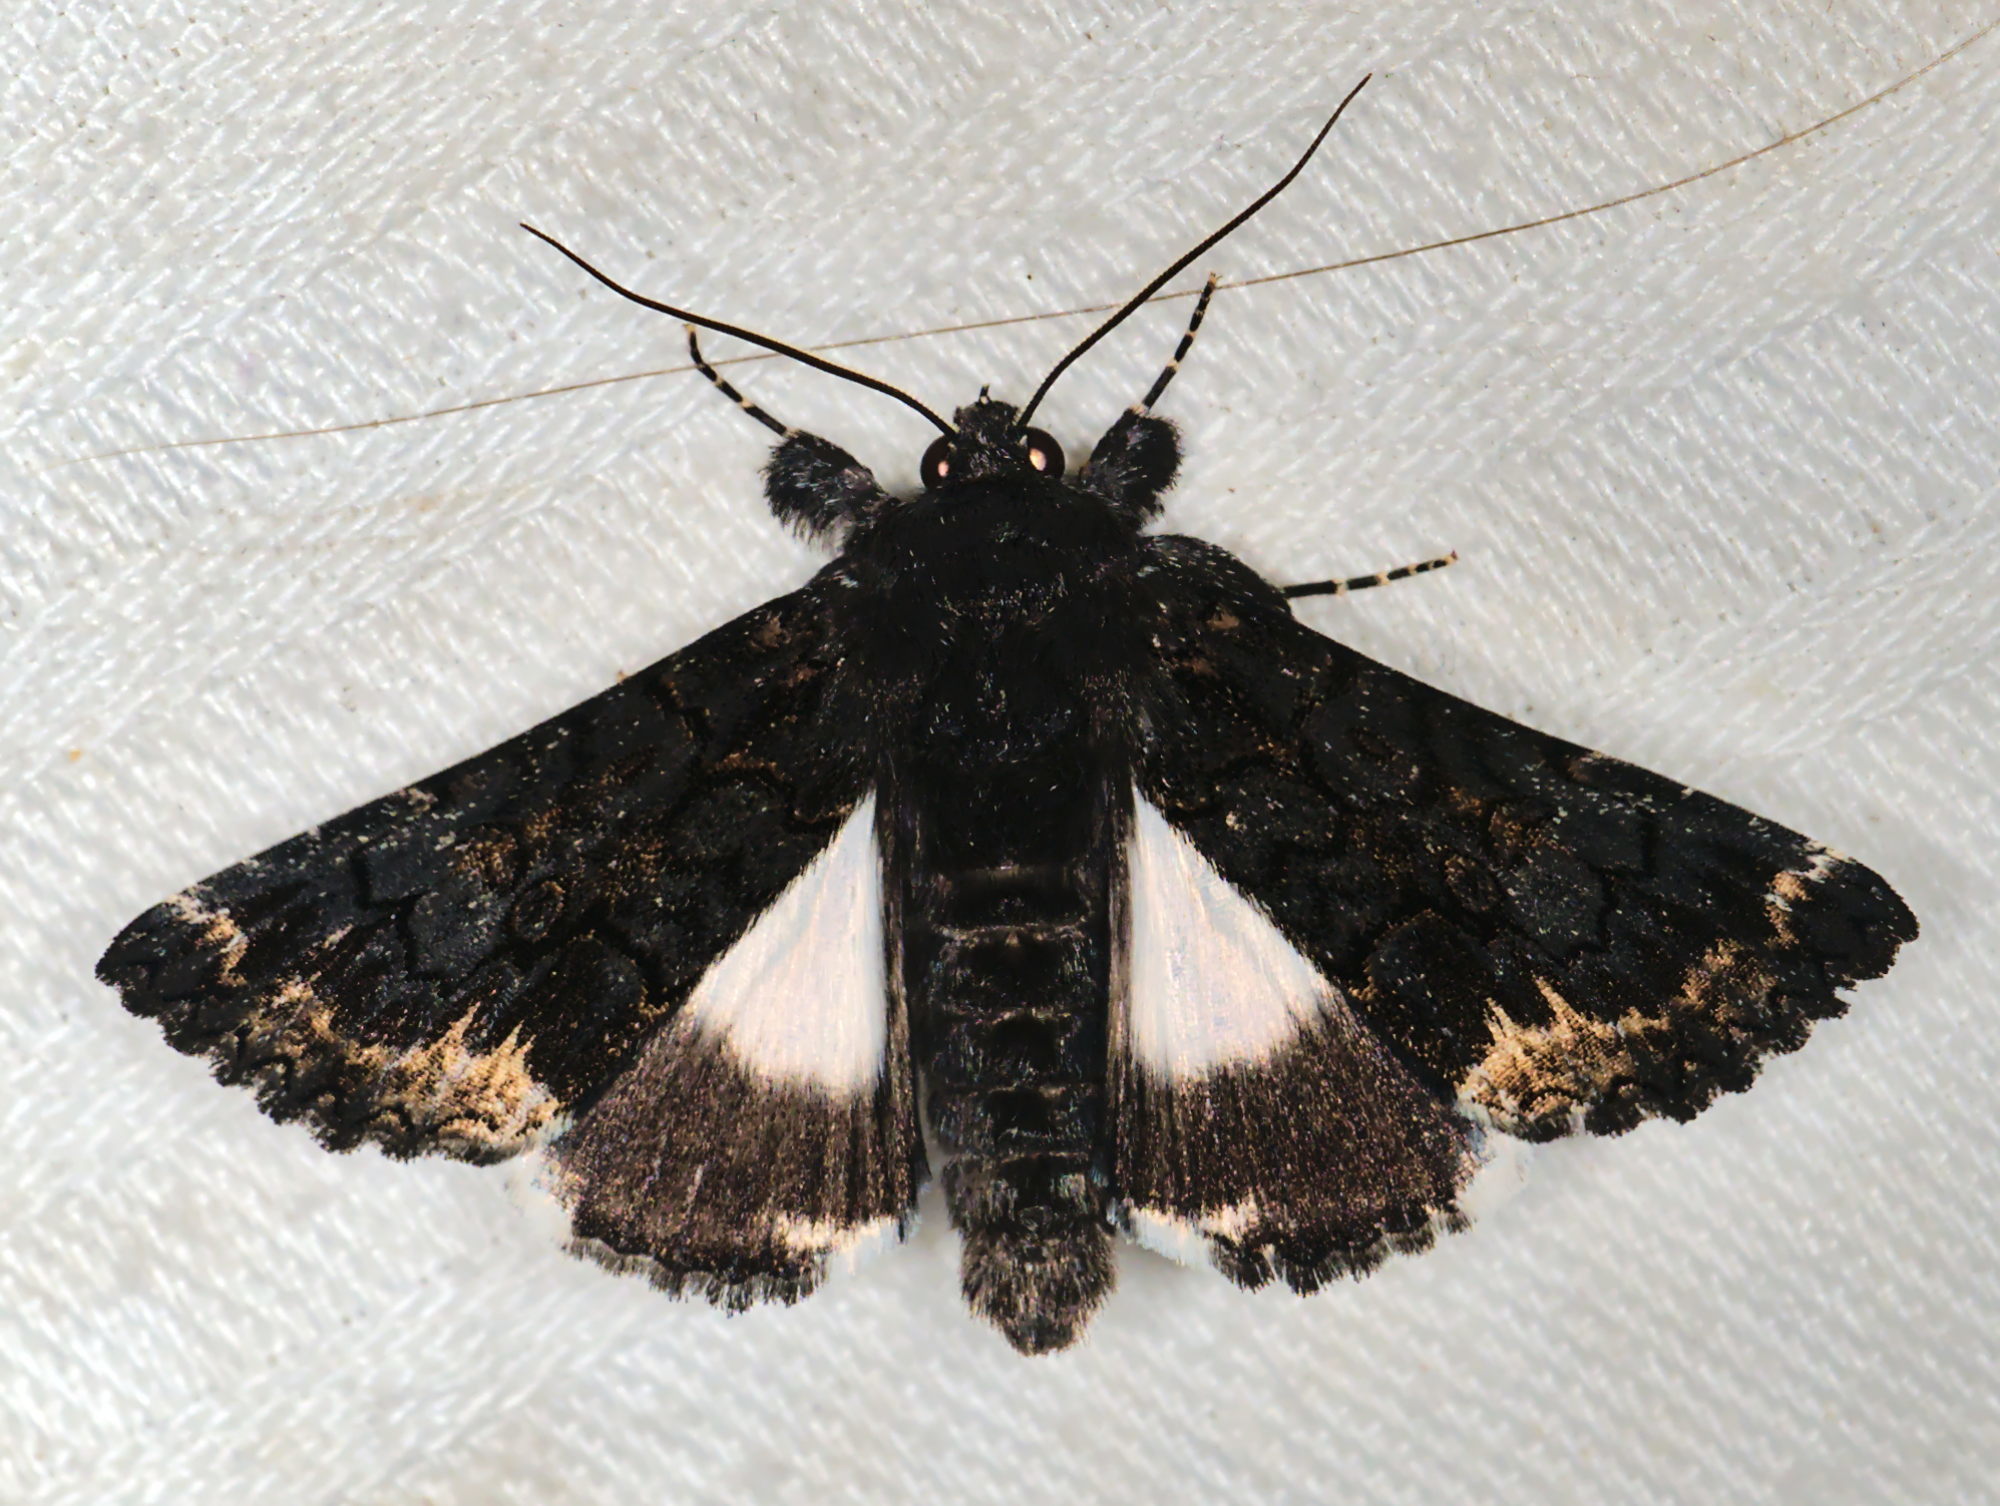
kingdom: Animalia
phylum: Arthropoda
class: Insecta
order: Lepidoptera
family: Erebidae
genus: Catephia
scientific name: Catephia alchymista
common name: Alchymist
